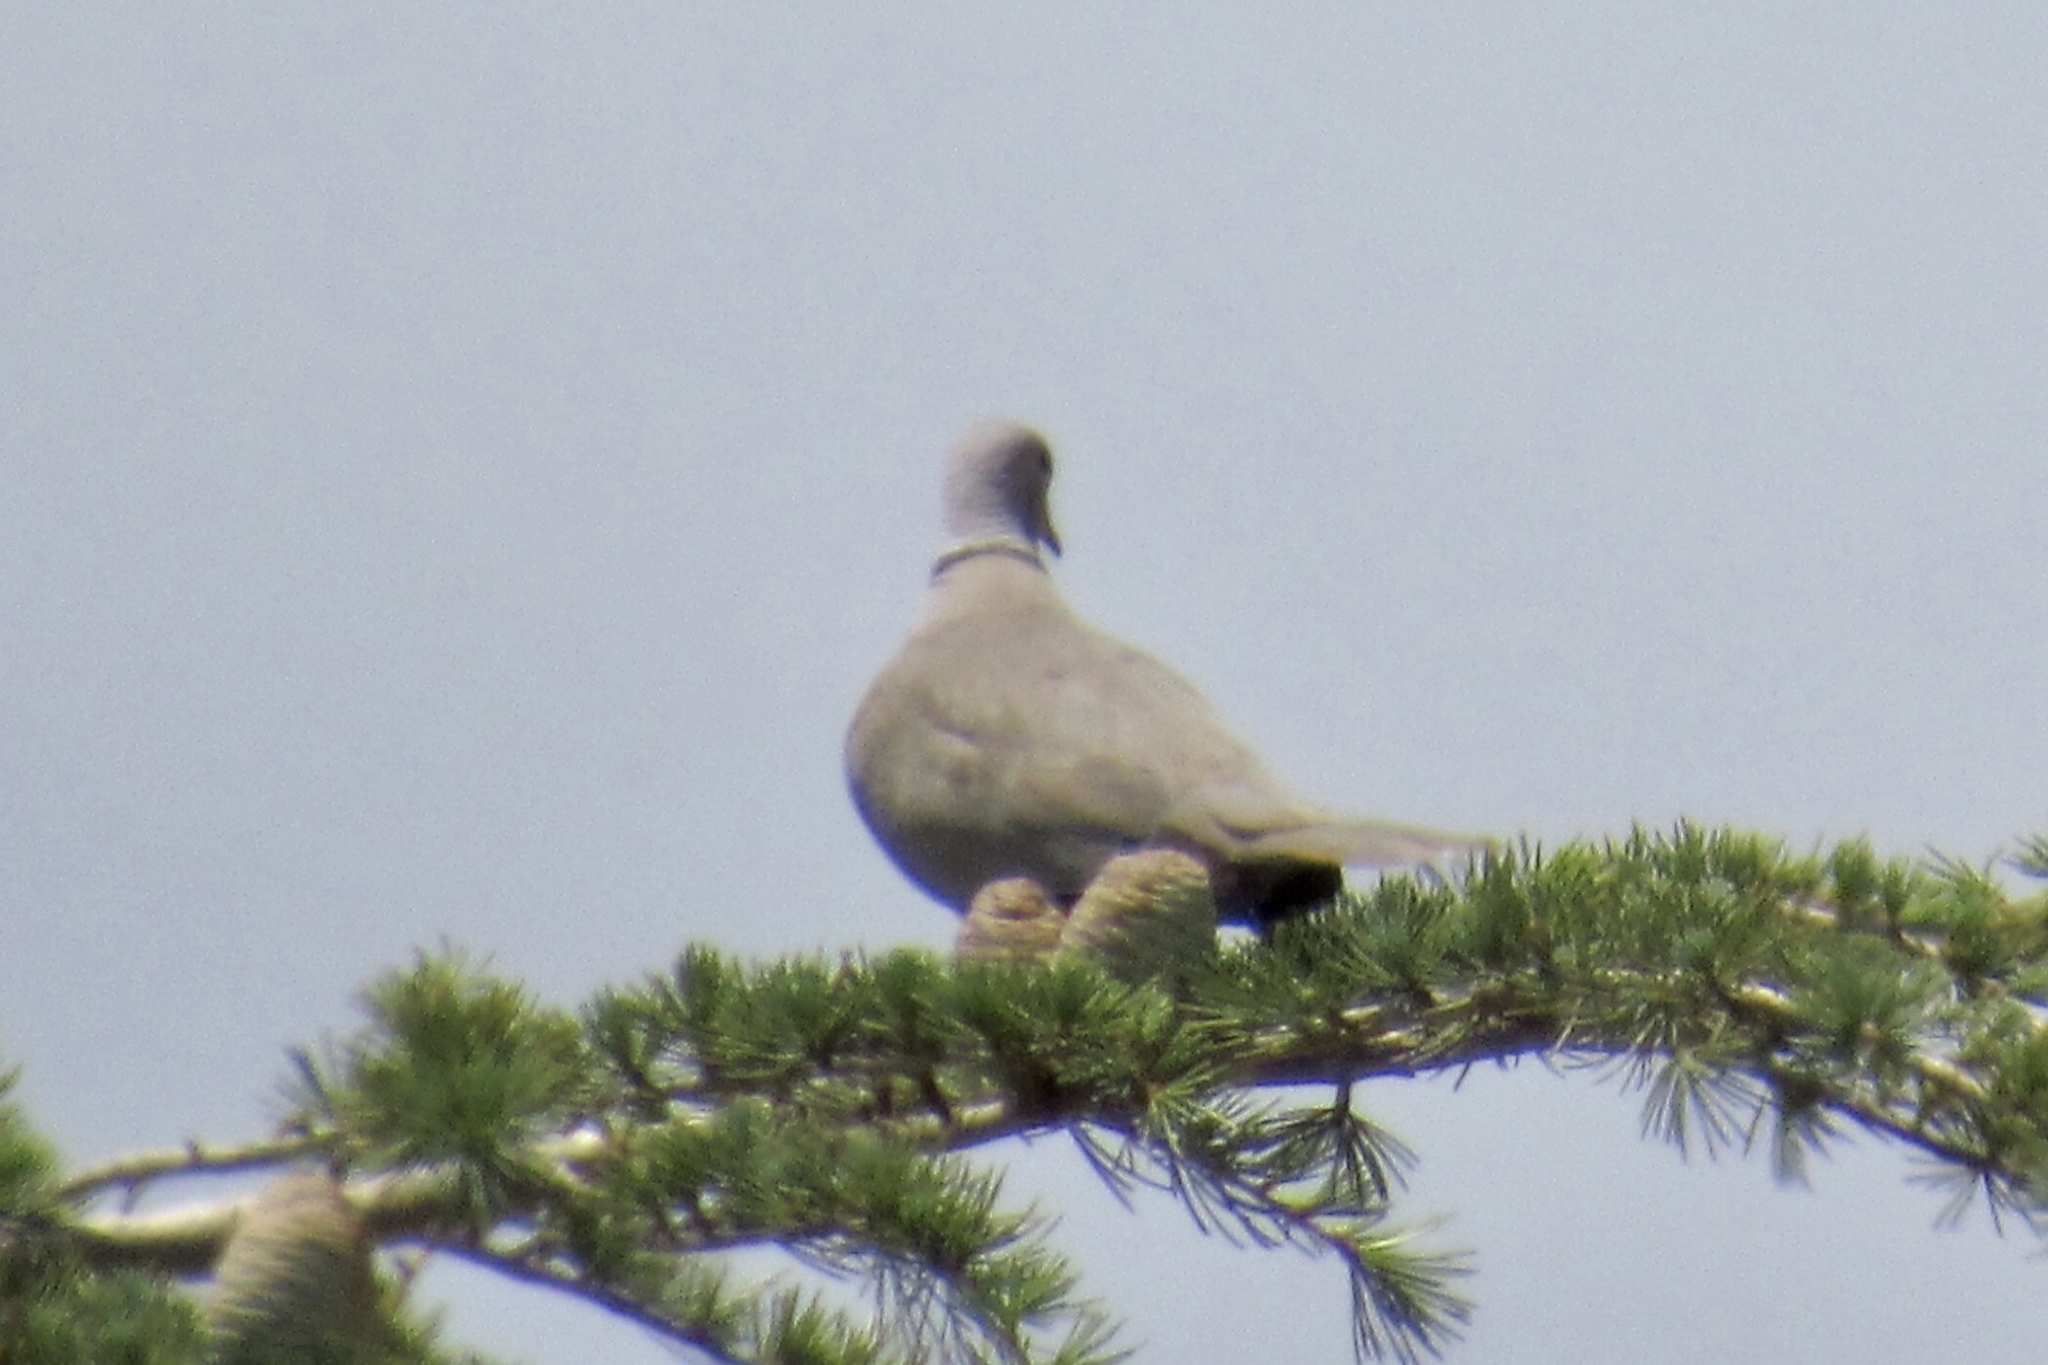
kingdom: Animalia
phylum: Chordata
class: Aves
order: Columbiformes
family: Columbidae
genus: Streptopelia
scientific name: Streptopelia decaocto
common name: Eurasian collared dove
